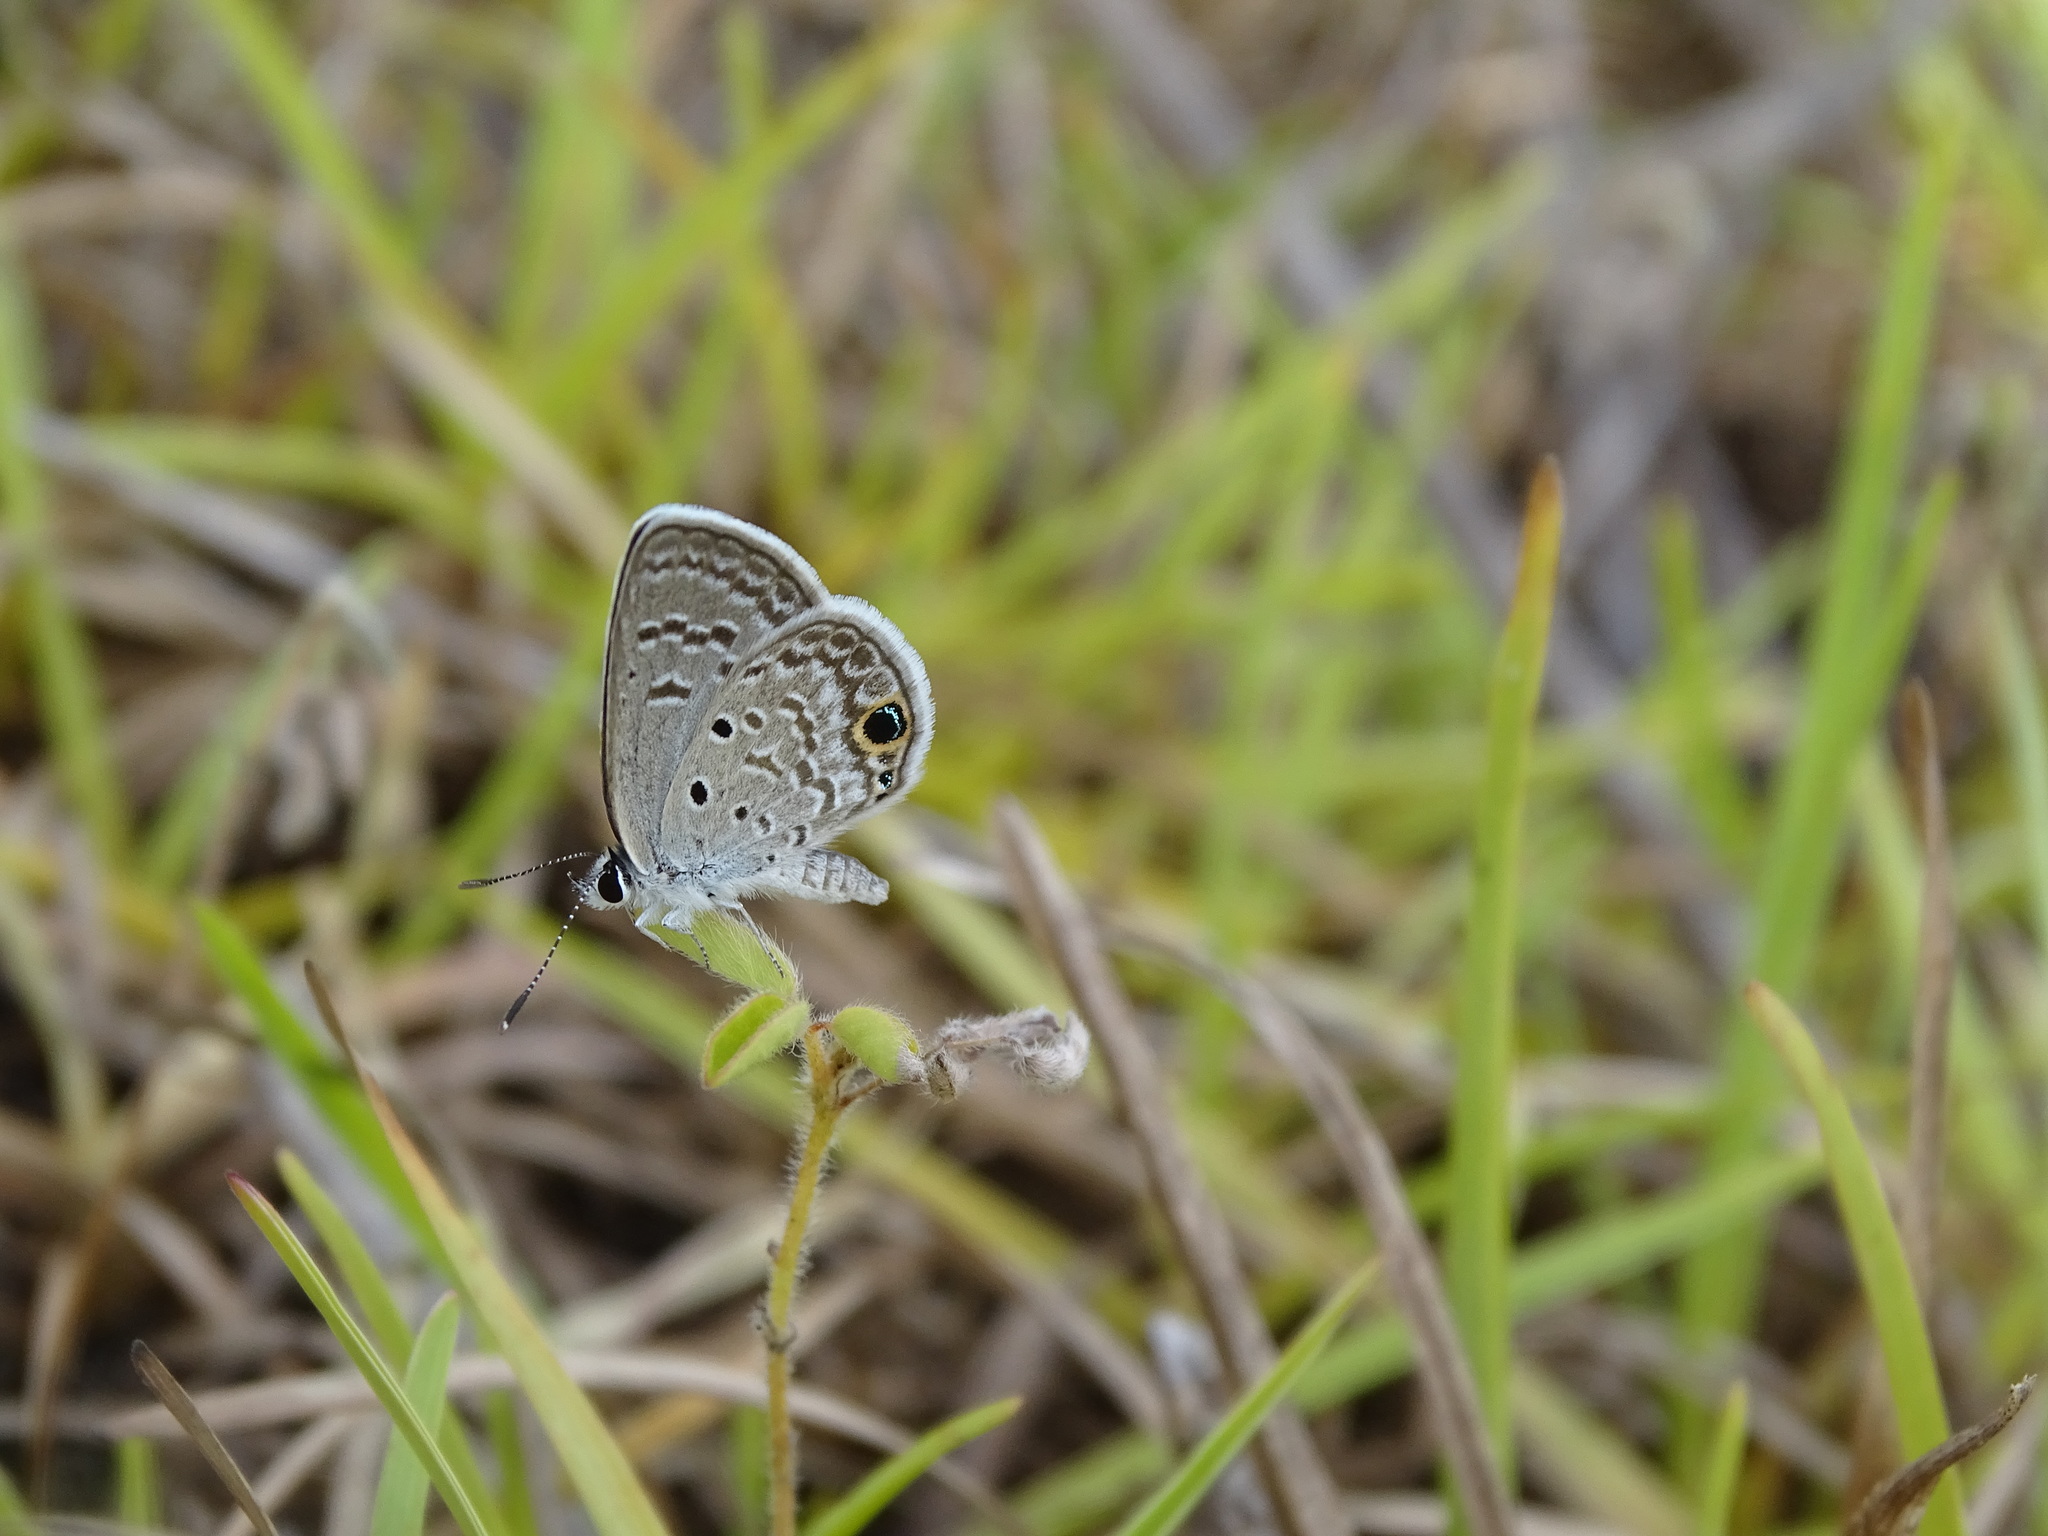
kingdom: Animalia
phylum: Arthropoda
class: Insecta
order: Lepidoptera
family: Lycaenidae
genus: Hemiargus
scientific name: Hemiargus ceraunus
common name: Ceraunus blue
